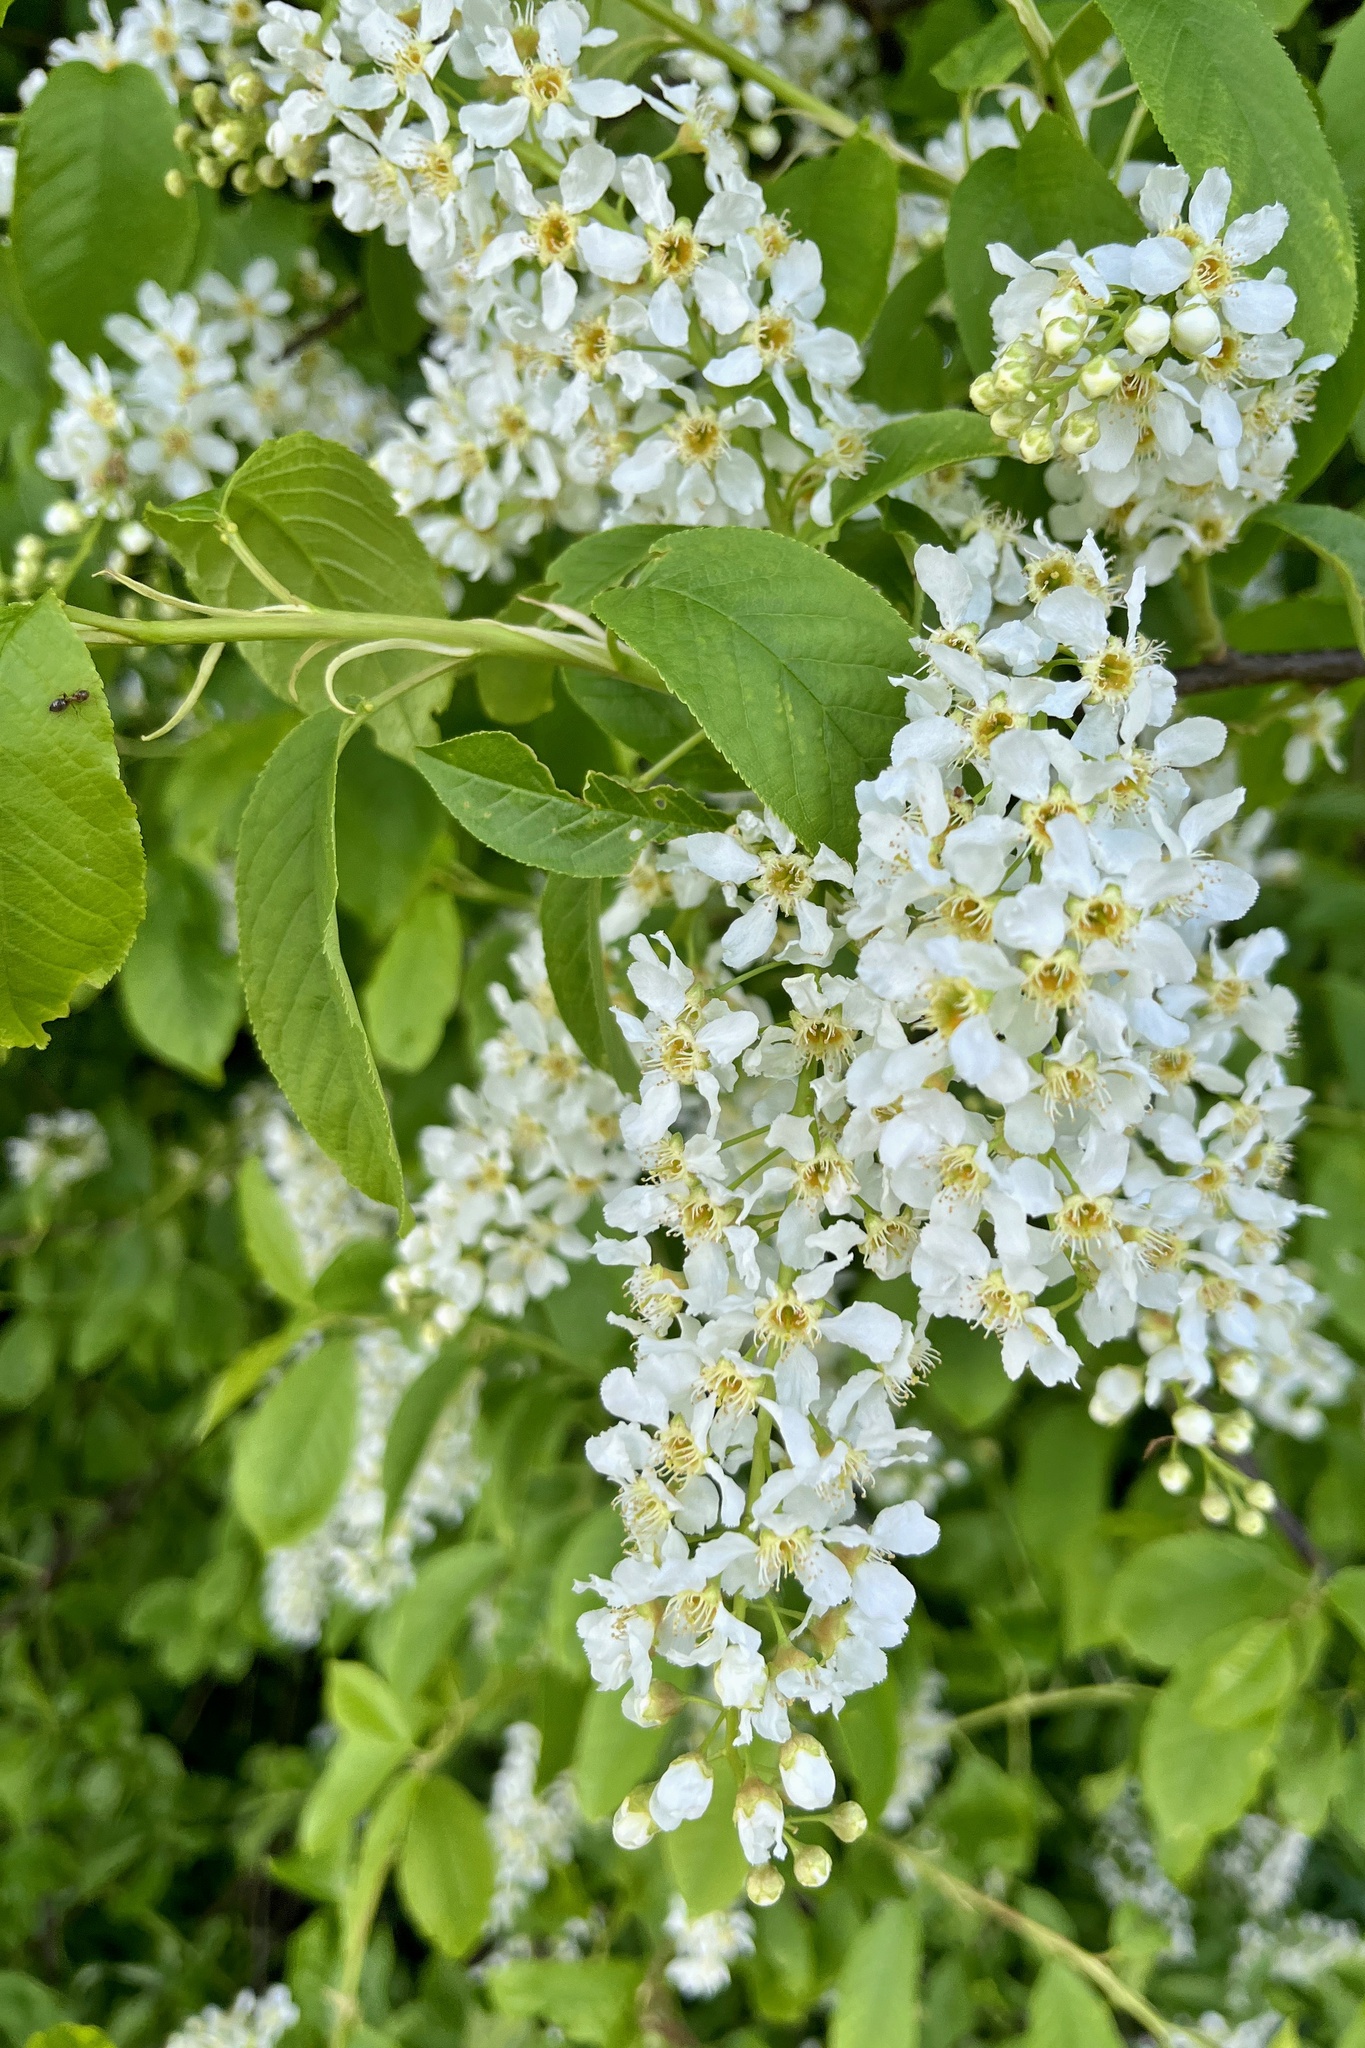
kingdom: Plantae
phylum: Tracheophyta
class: Magnoliopsida
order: Rosales
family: Rosaceae
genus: Prunus
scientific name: Prunus padus
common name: Bird cherry
